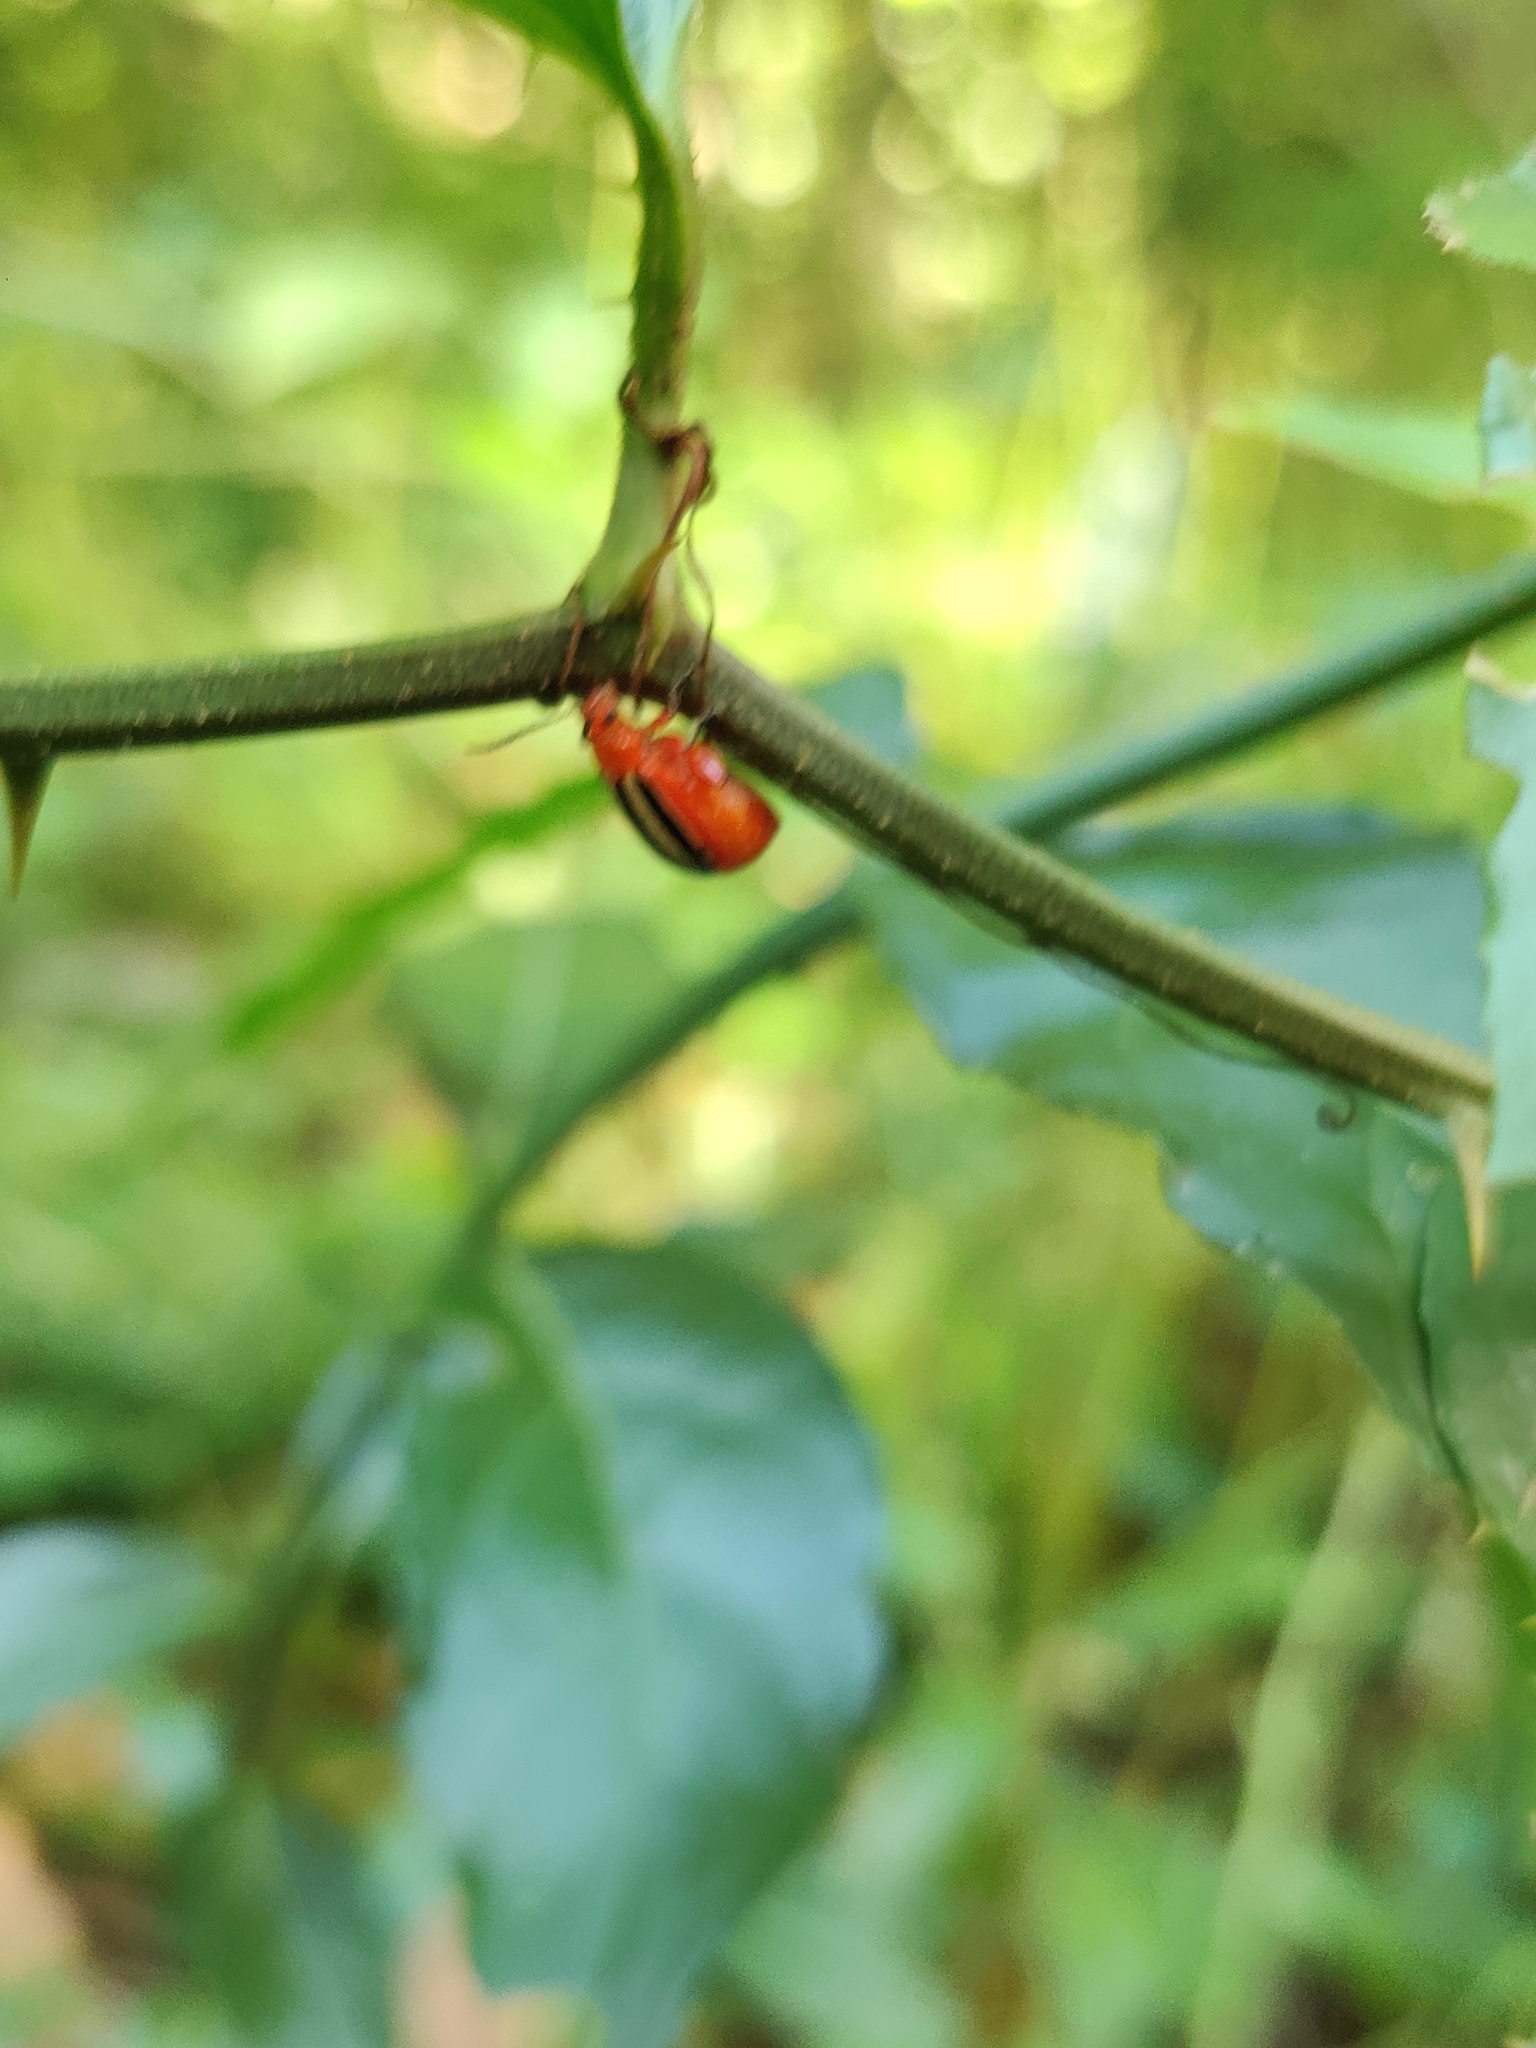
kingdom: Animalia
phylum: Arthropoda
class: Insecta
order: Coleoptera
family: Chrysomelidae
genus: Disonycha
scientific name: Disonycha discoidea
